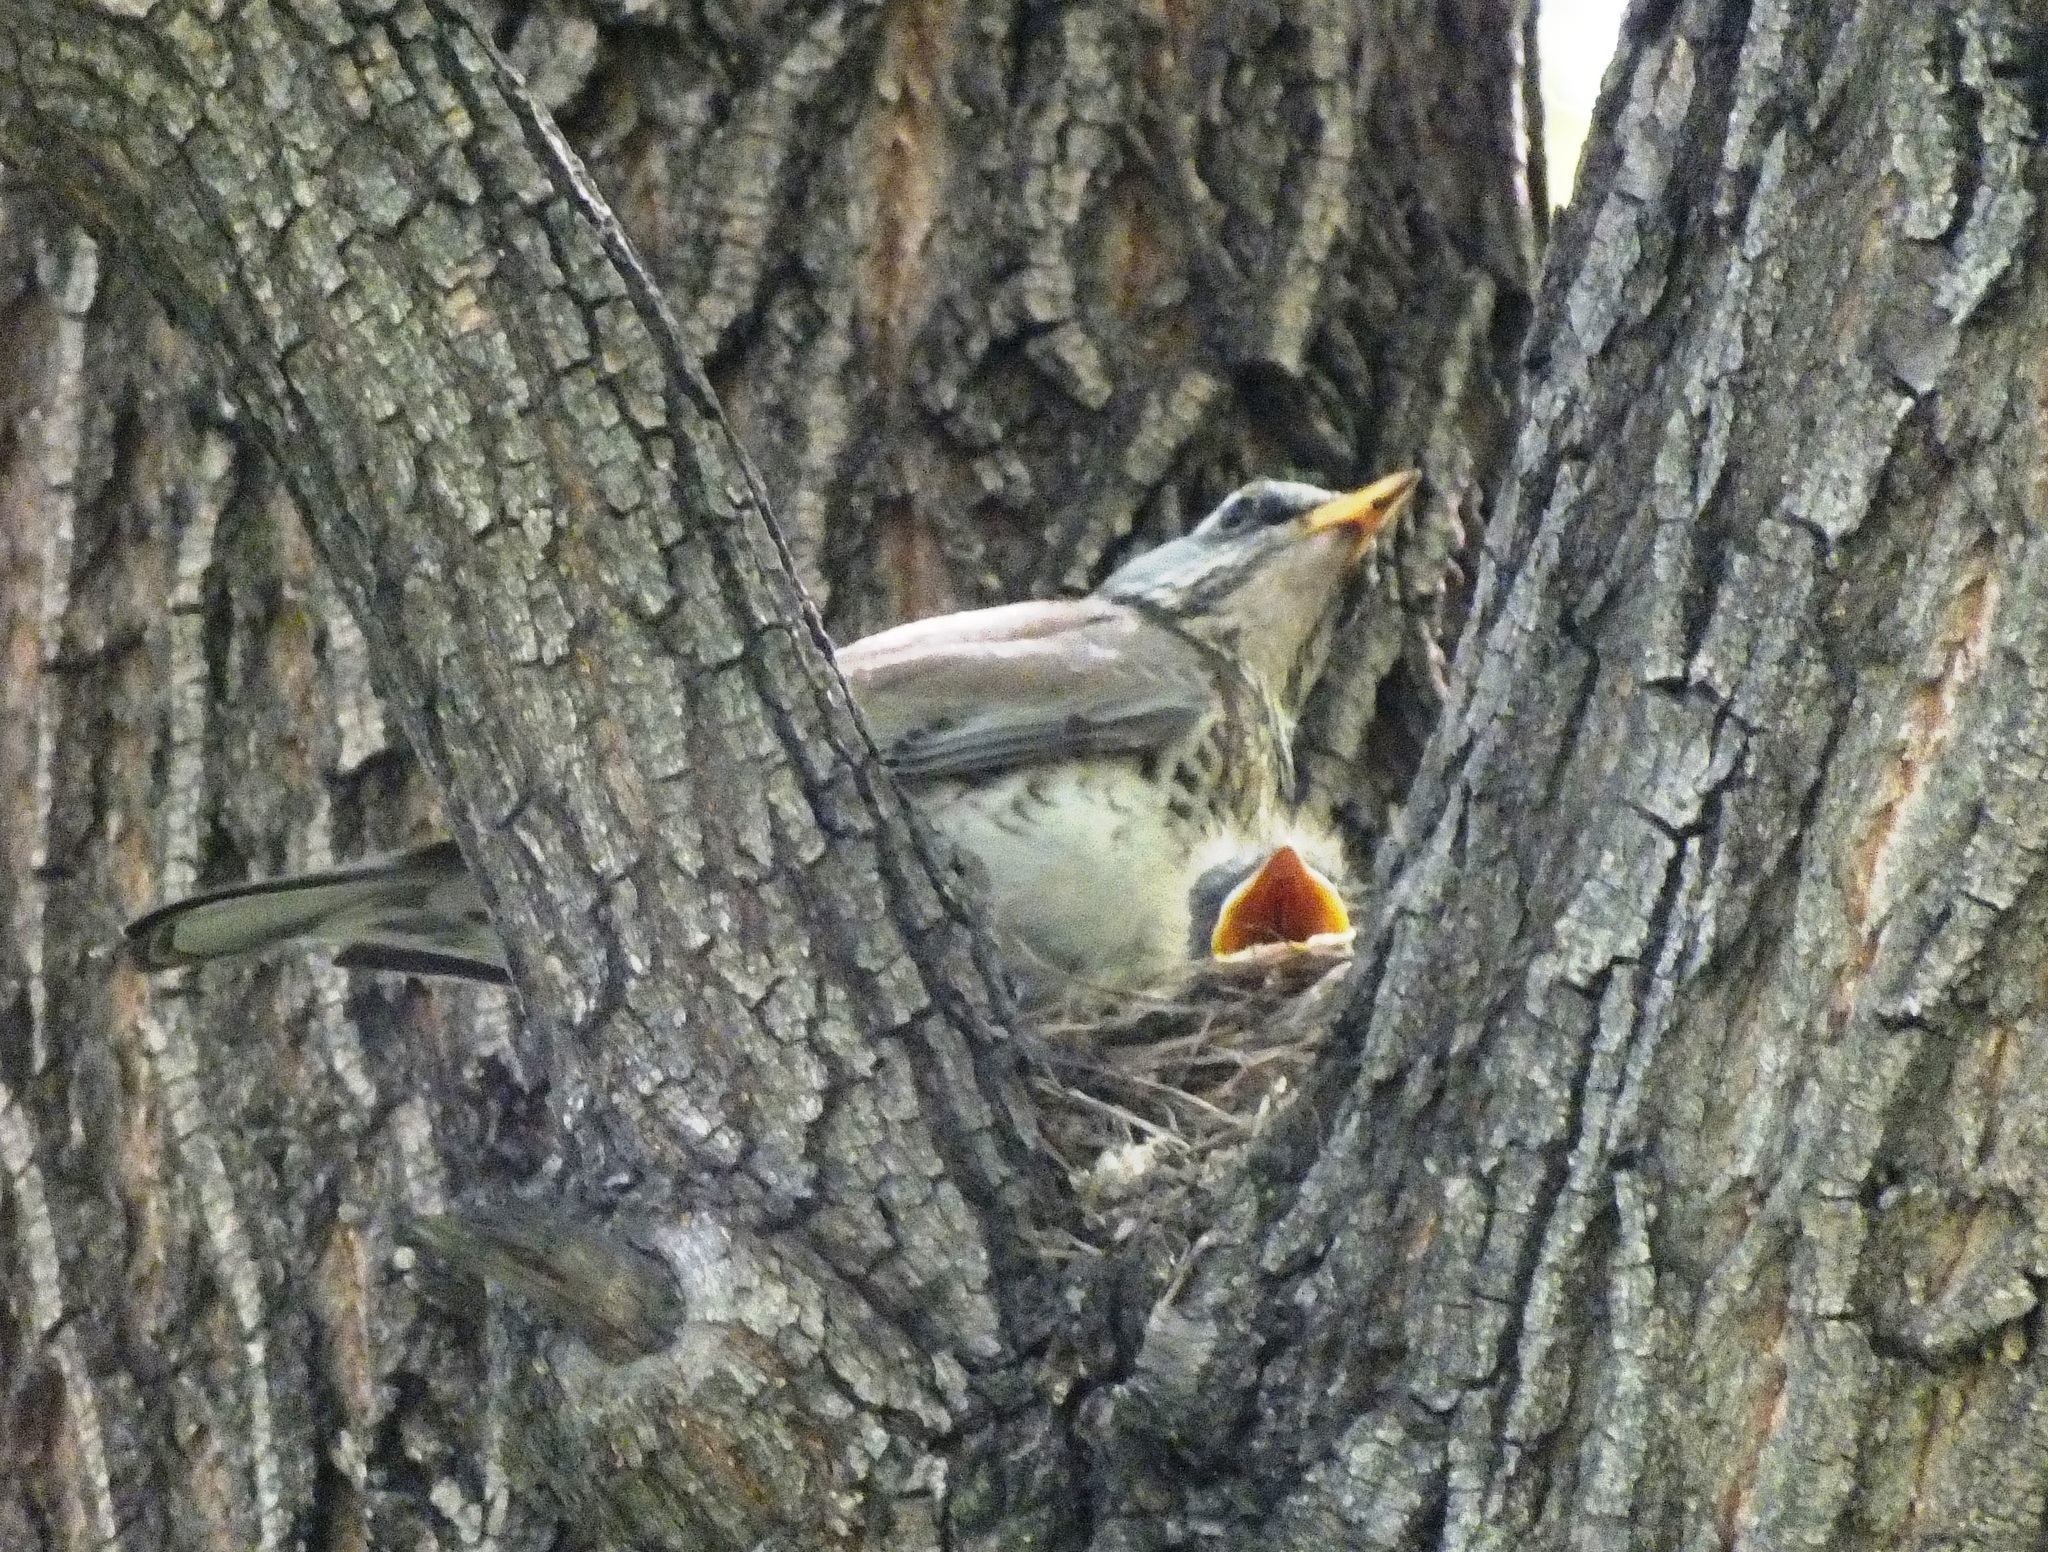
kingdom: Animalia
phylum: Chordata
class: Aves
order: Passeriformes
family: Turdidae
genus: Turdus
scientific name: Turdus pilaris
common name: Fieldfare
